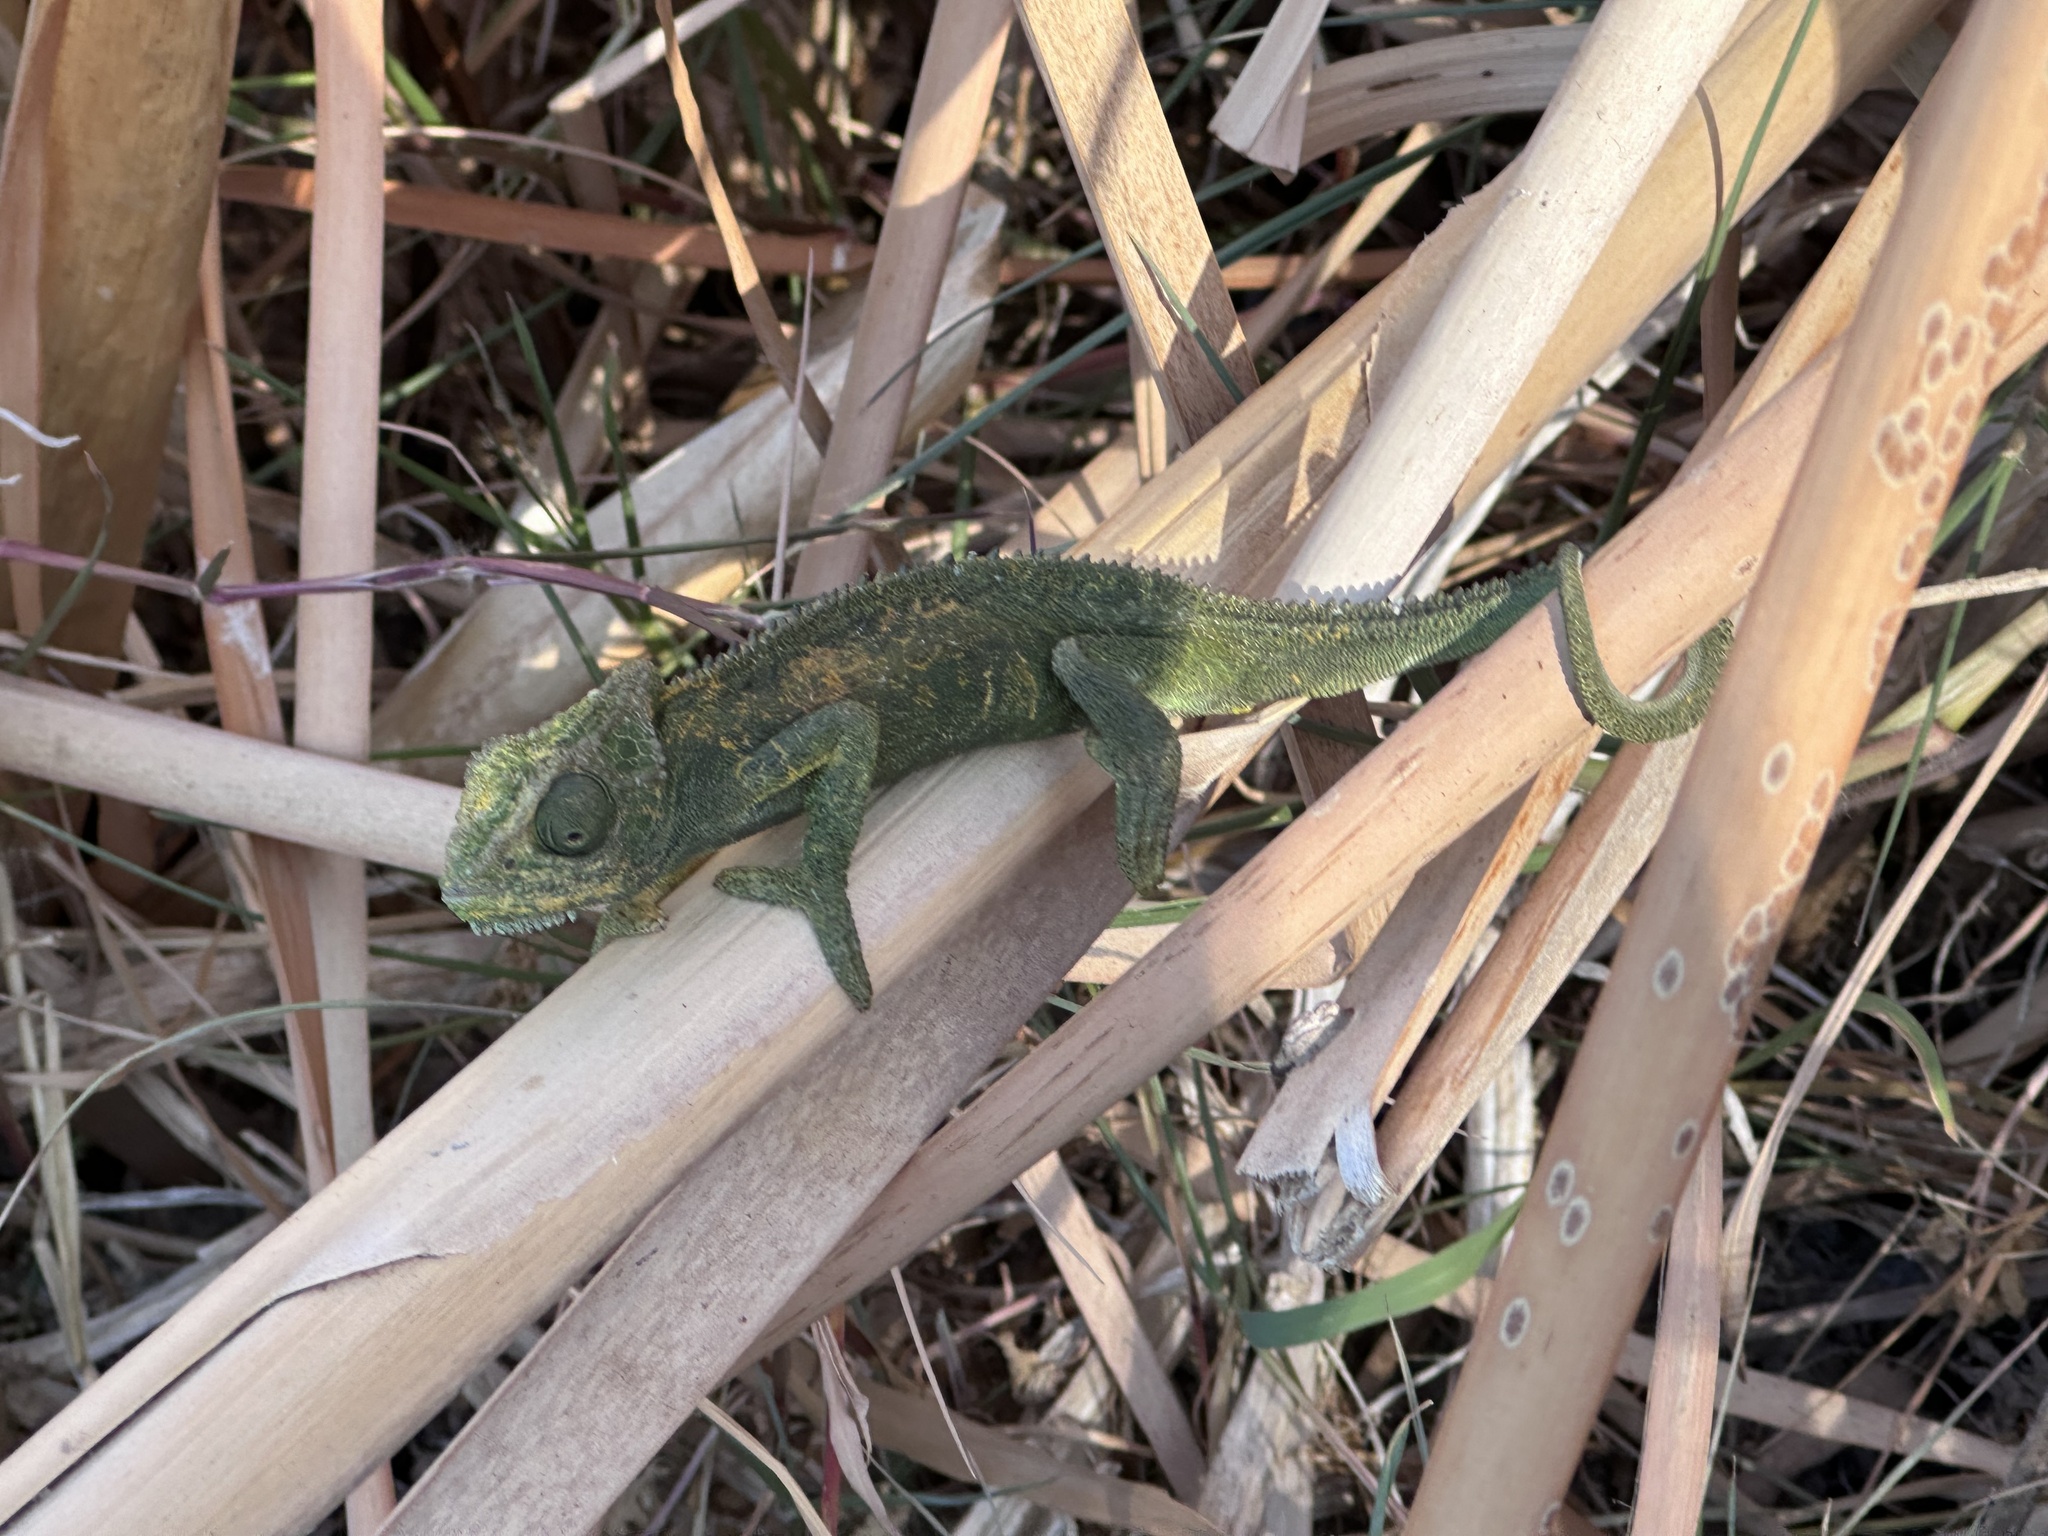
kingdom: Animalia
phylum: Chordata
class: Squamata
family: Chamaeleonidae
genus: Bradypodion
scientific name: Bradypodion pumilum
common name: Cape dwarf chameleon
